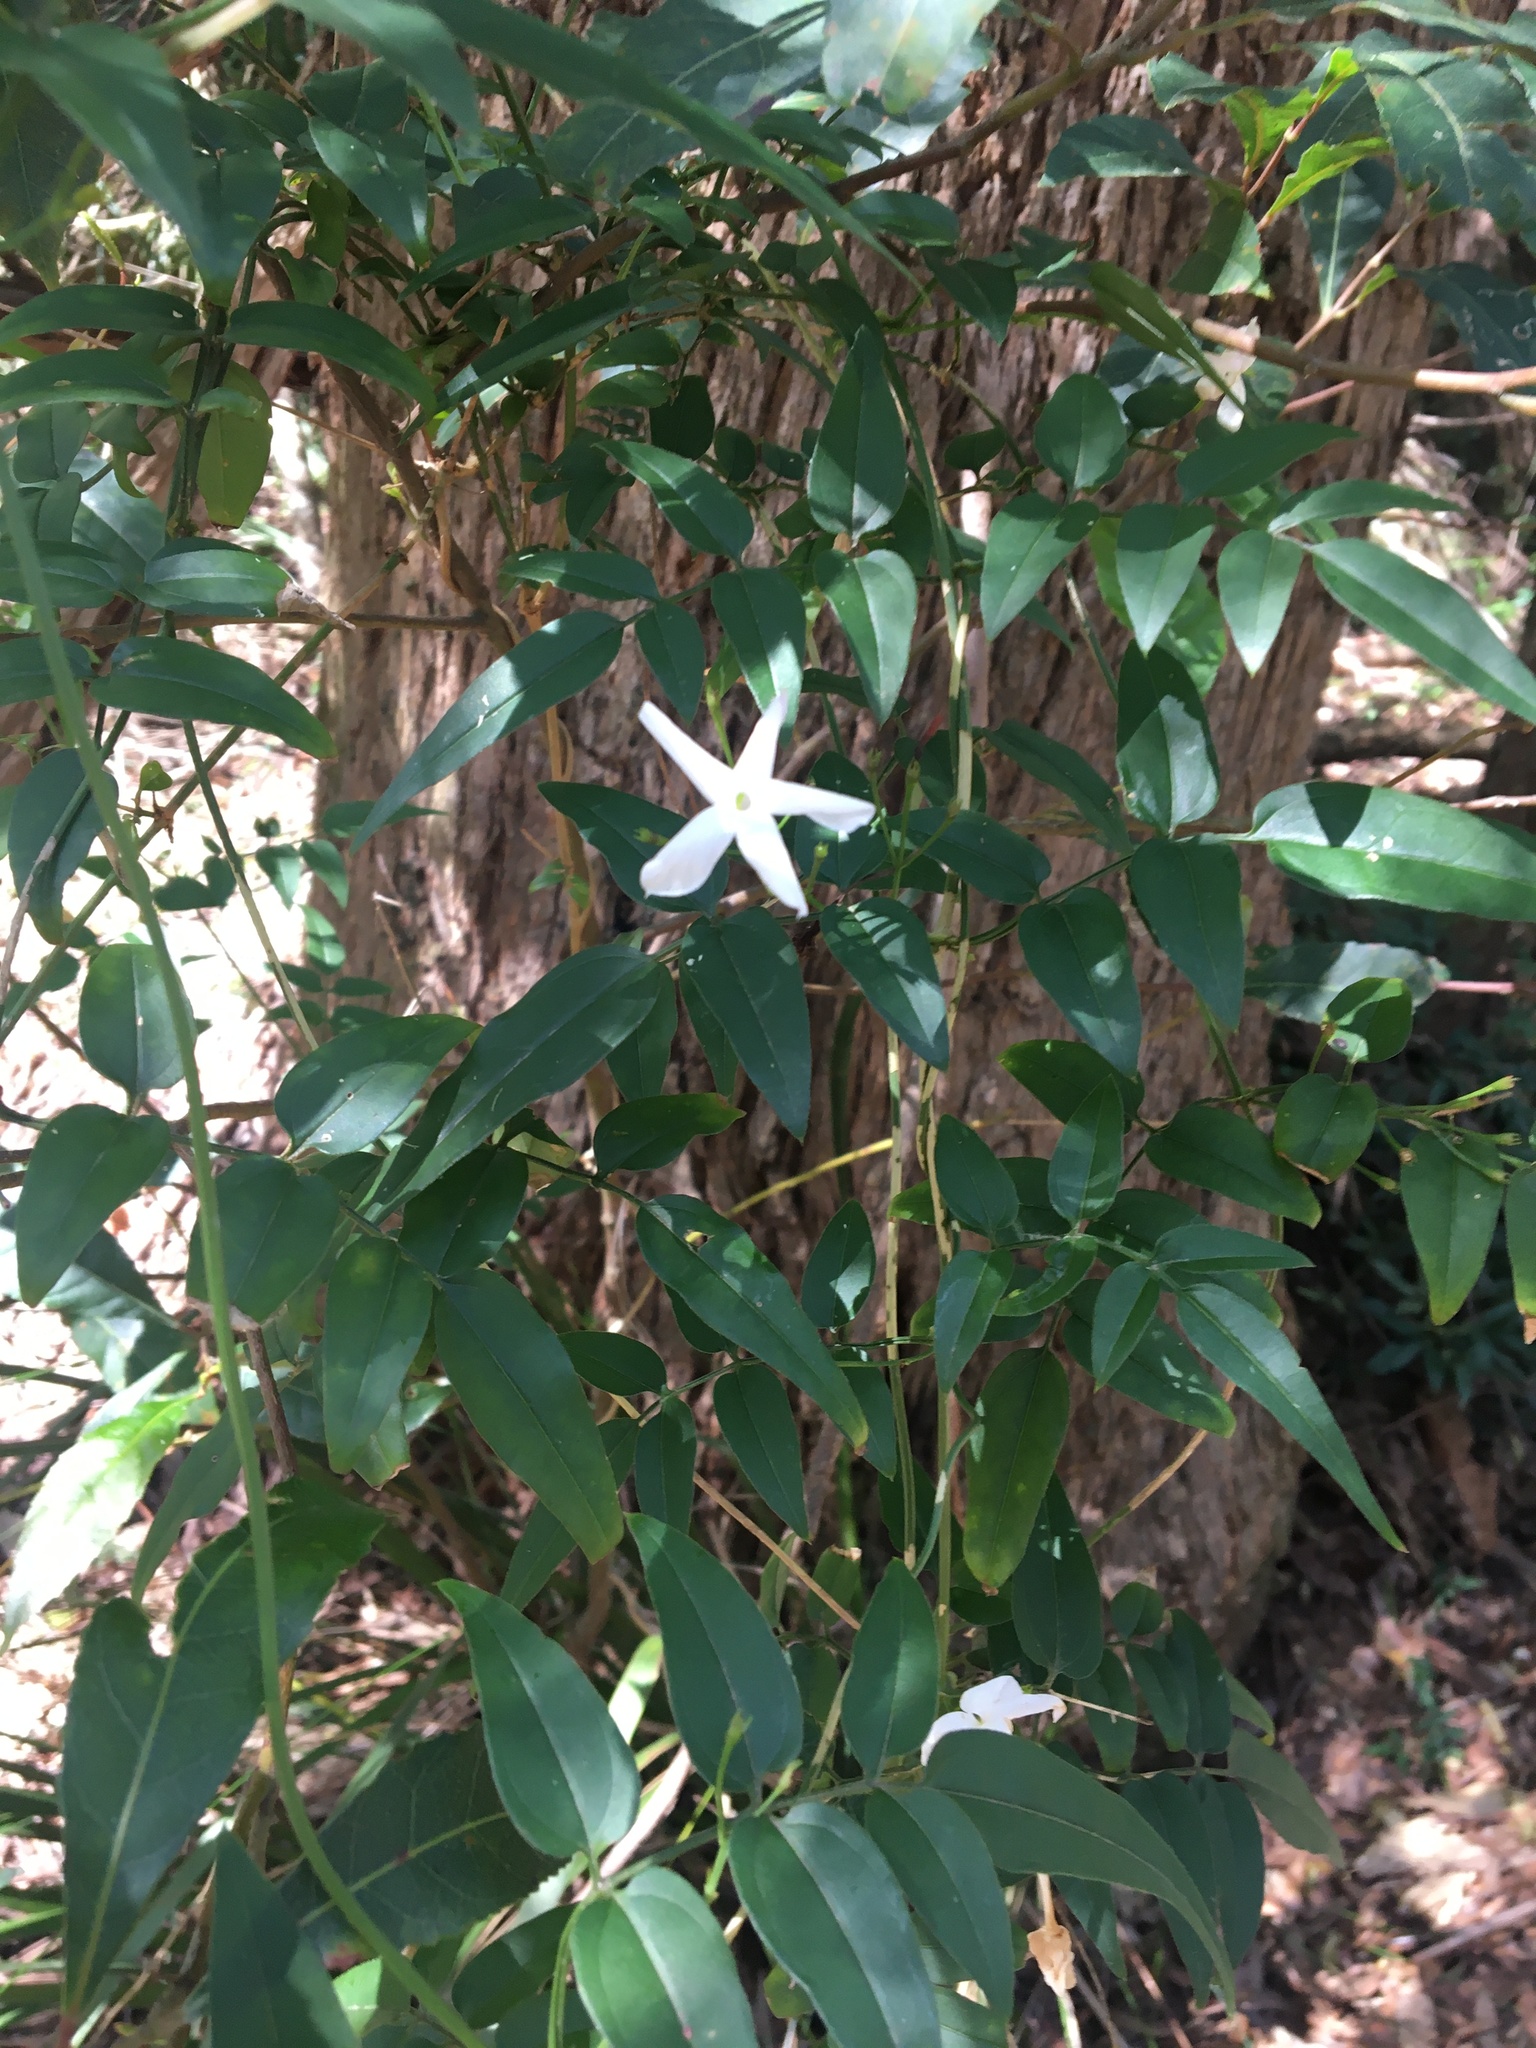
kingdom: Plantae
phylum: Tracheophyta
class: Magnoliopsida
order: Lamiales
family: Oleaceae
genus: Jasminum
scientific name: Jasminum polyanthum
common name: Pink jasmine
